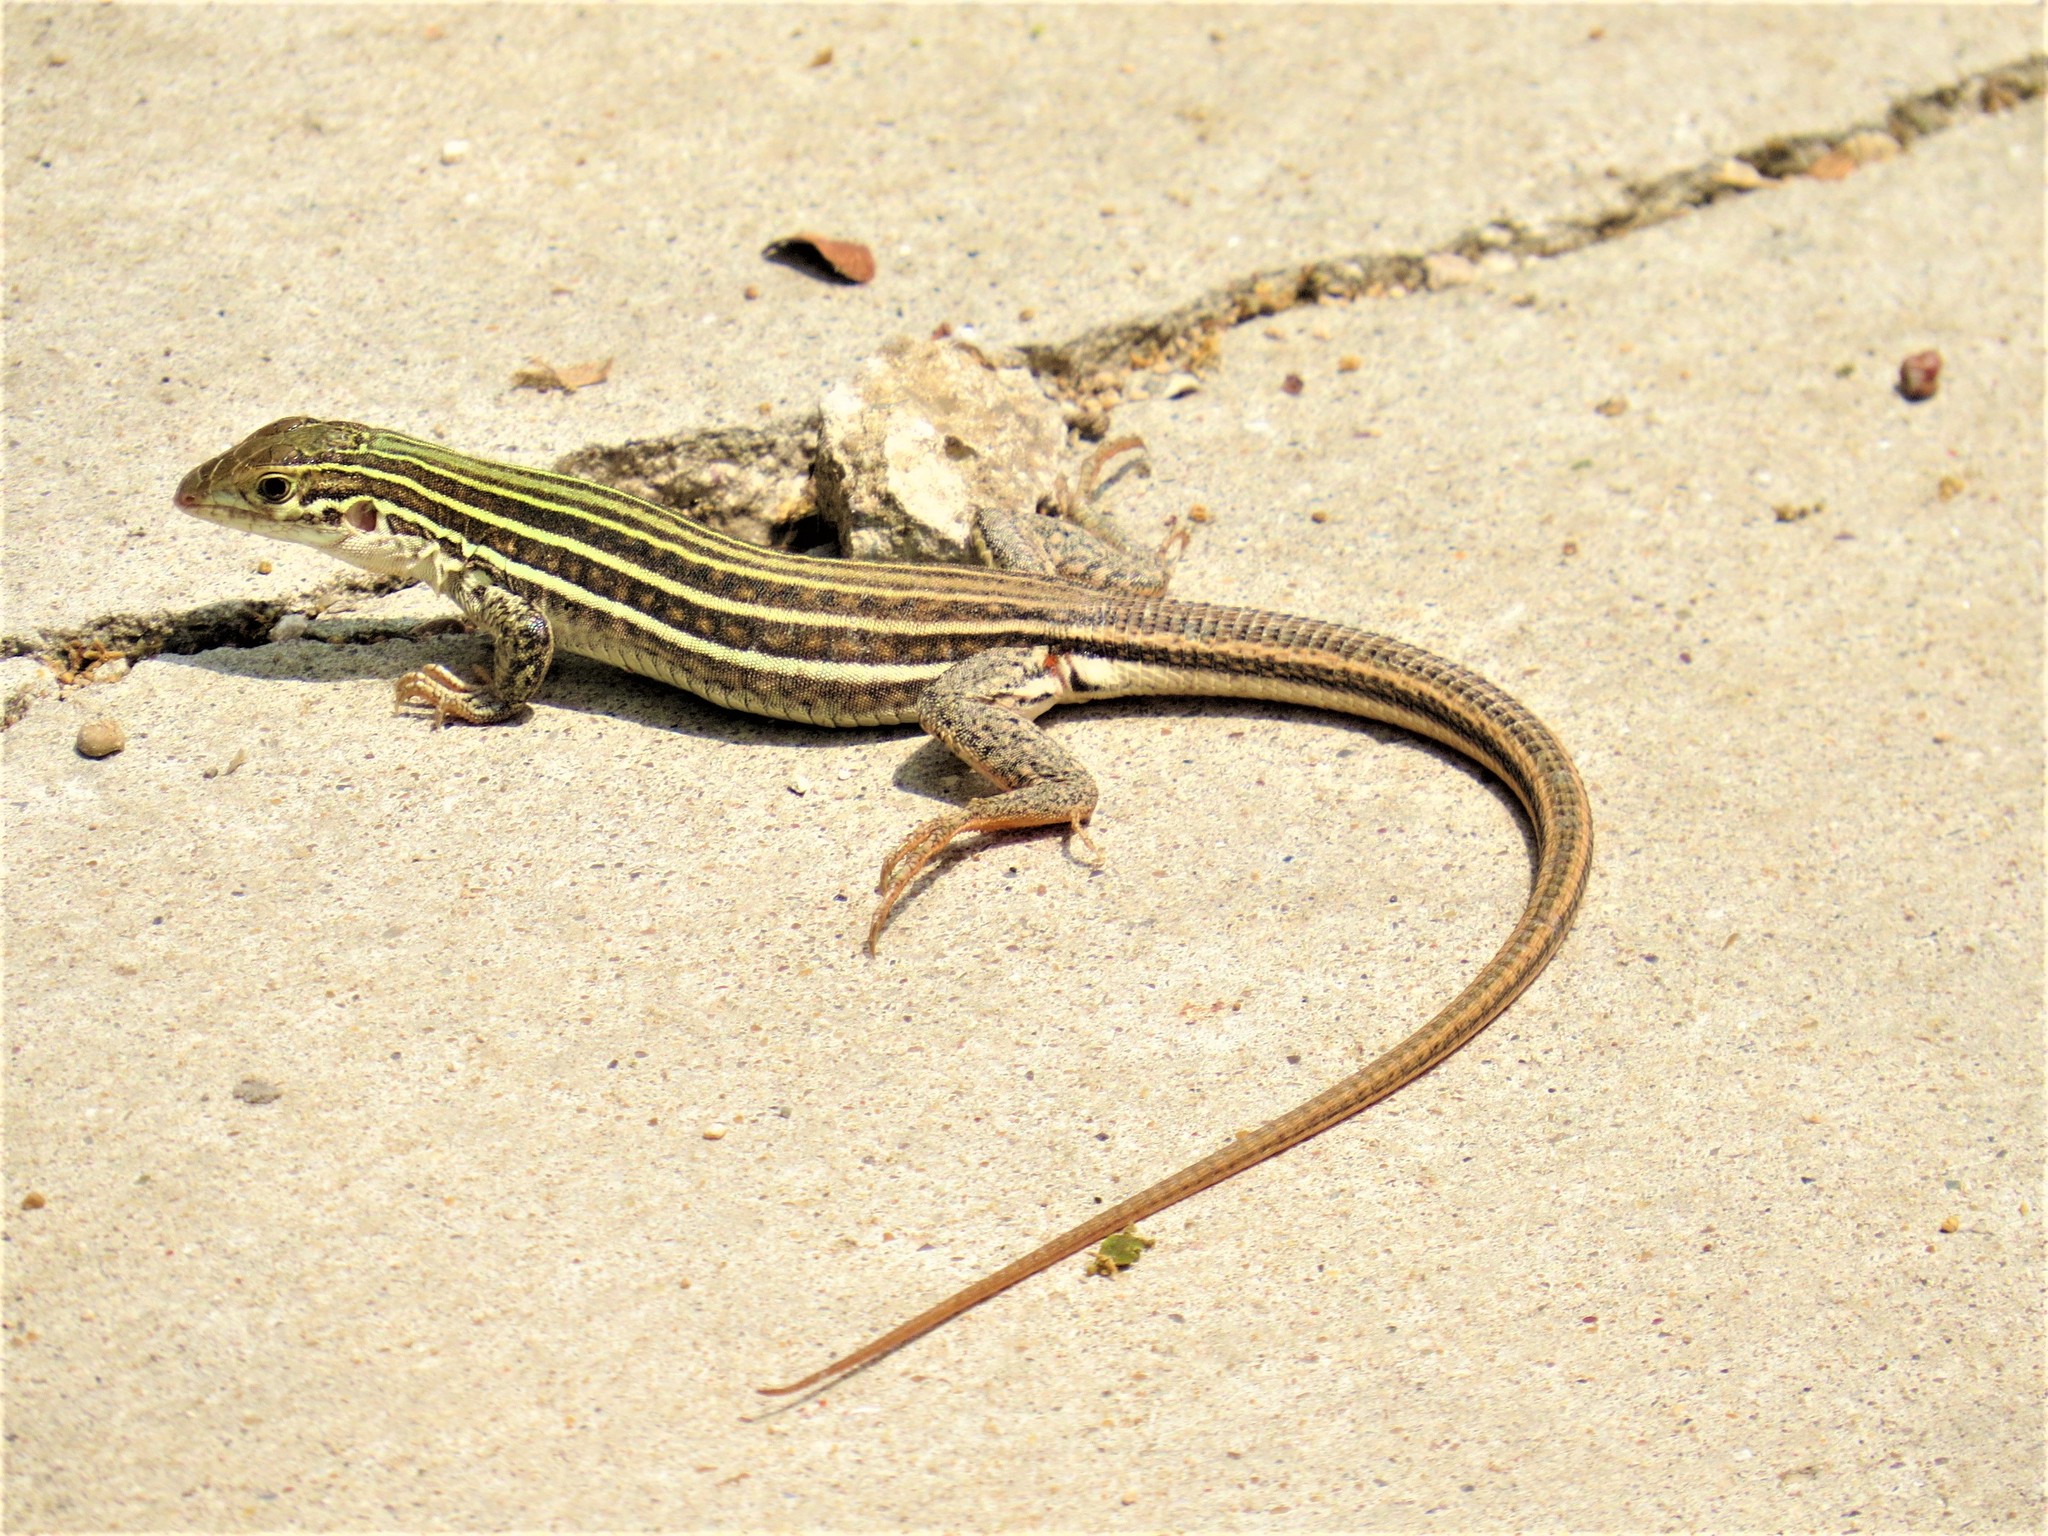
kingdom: Animalia
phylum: Chordata
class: Squamata
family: Teiidae
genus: Aspidoscelis
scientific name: Aspidoscelis gularis
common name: Eastern spotted whiptail
